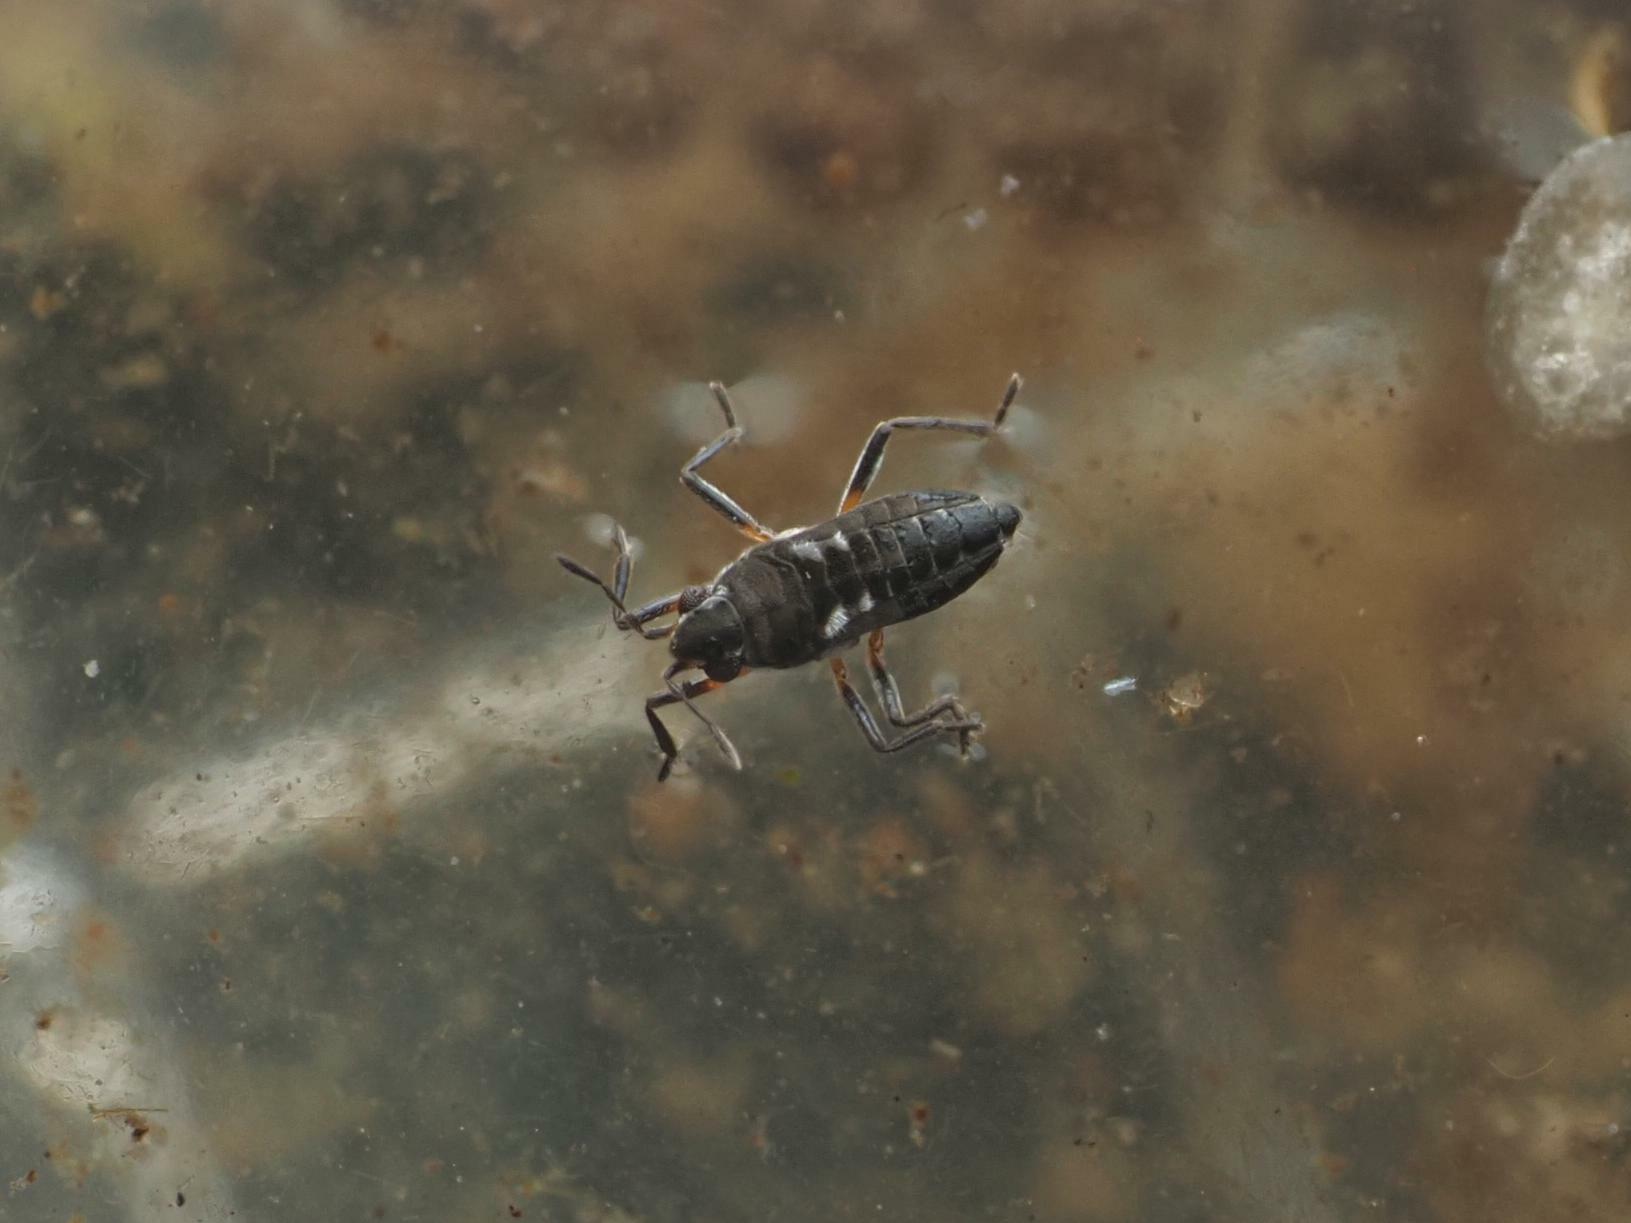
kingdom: Animalia
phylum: Arthropoda
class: Insecta
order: Hemiptera
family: Veliidae
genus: Microvelia
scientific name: Microvelia buenoi
